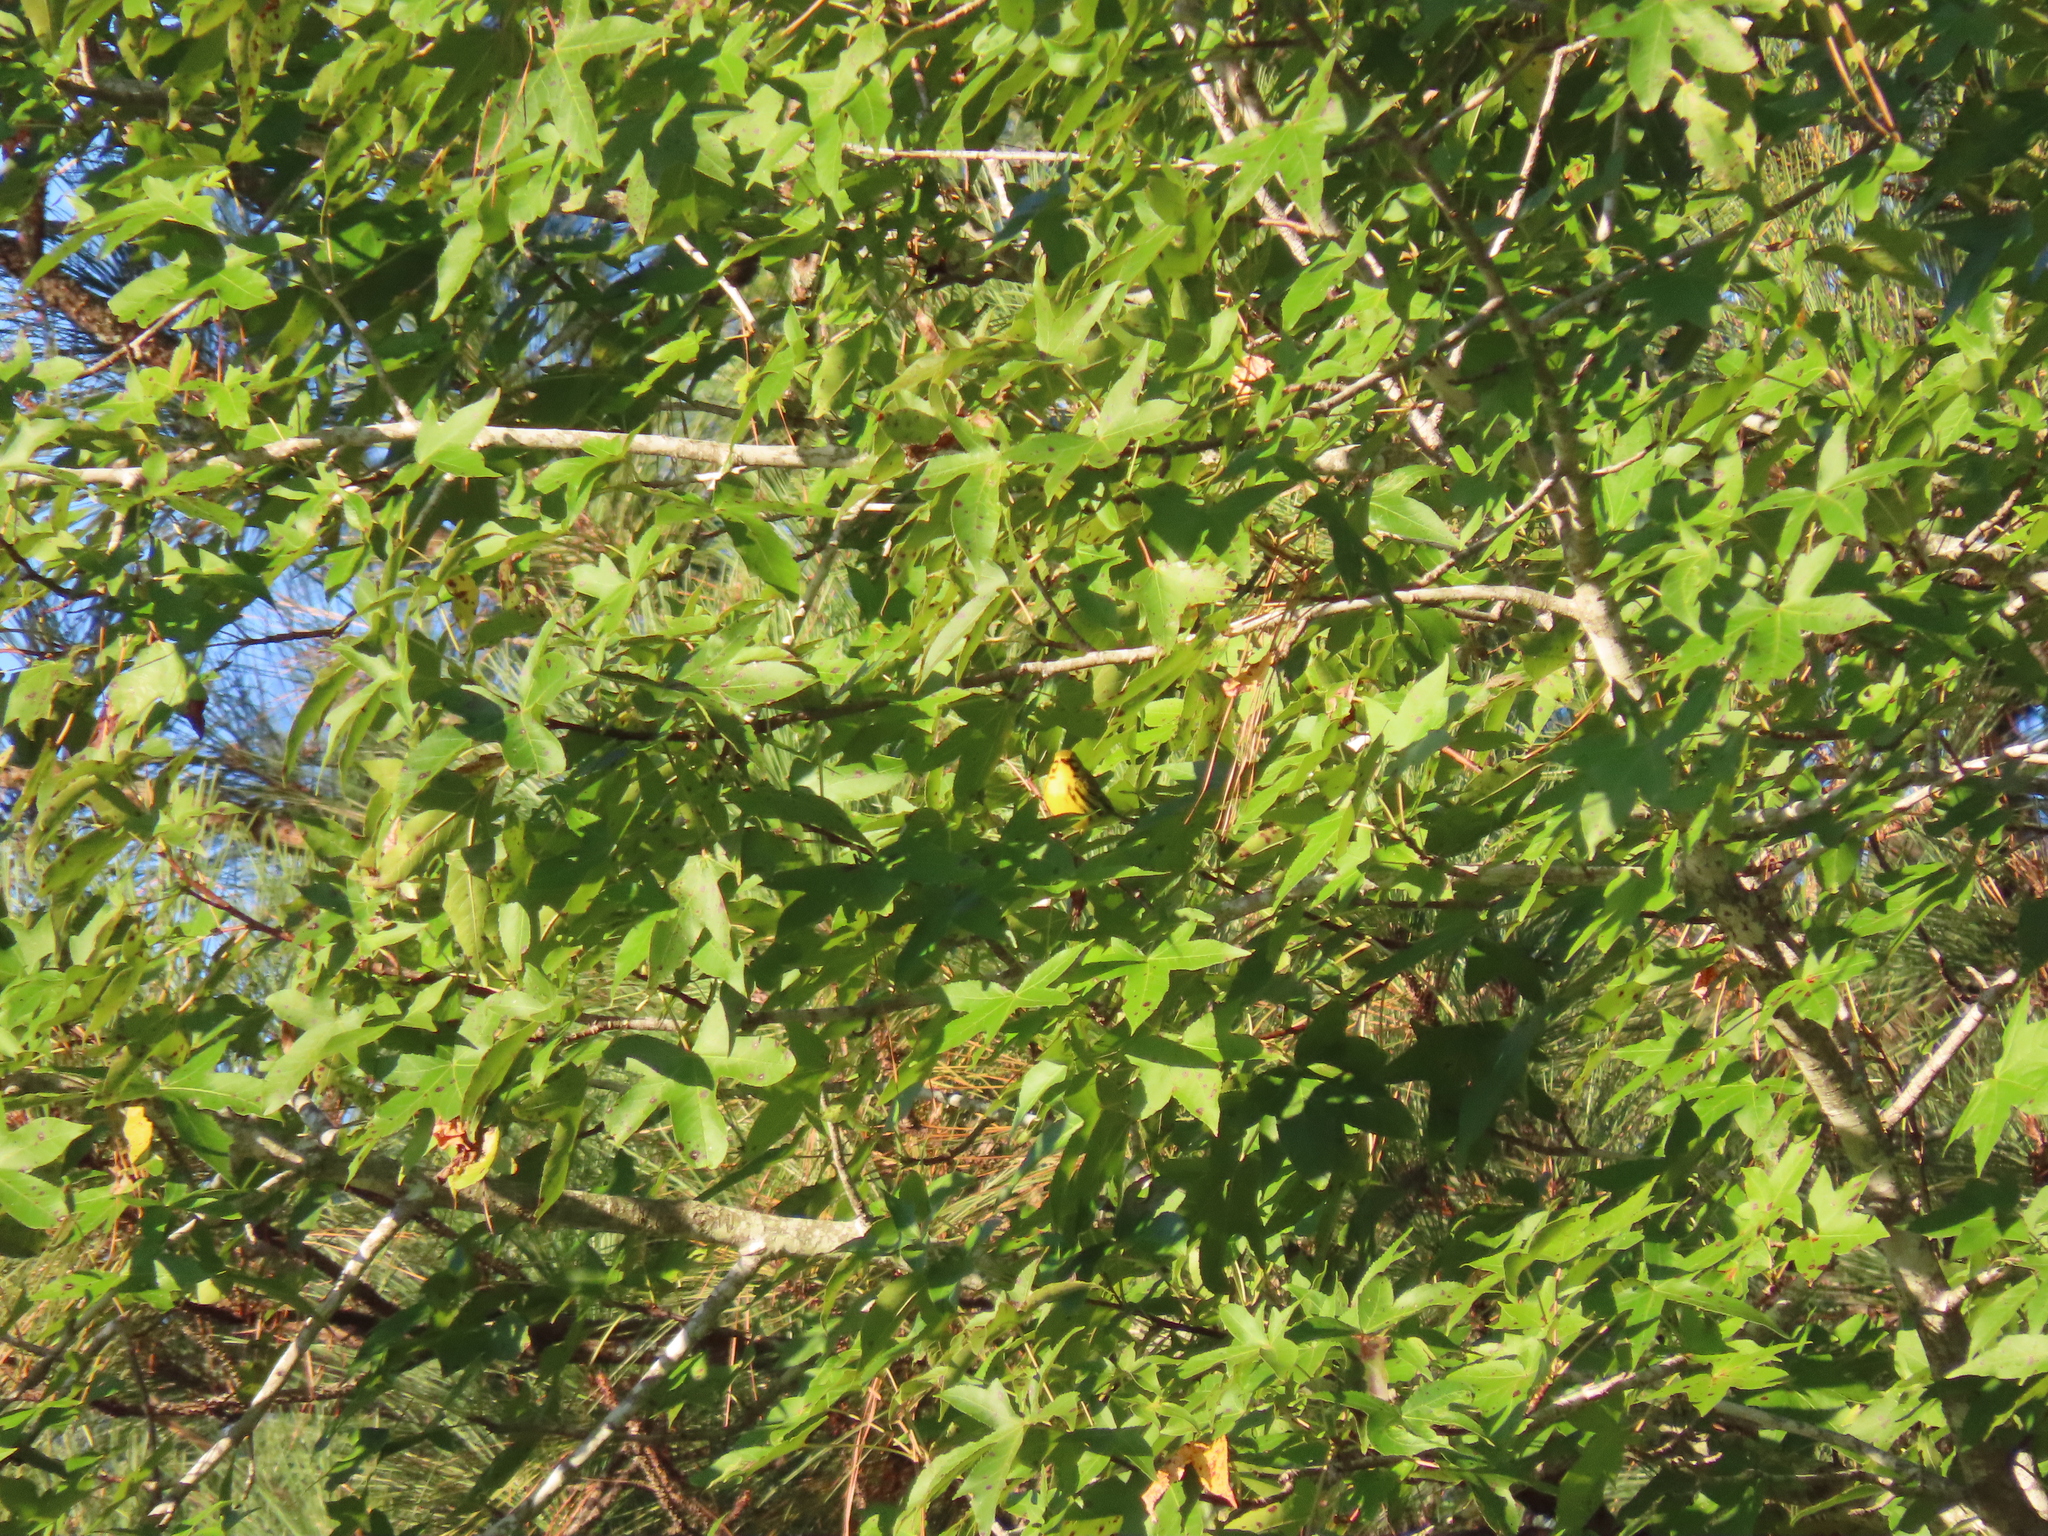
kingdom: Animalia
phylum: Chordata
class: Aves
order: Passeriformes
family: Parulidae
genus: Setophaga
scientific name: Setophaga discolor
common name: Prairie warbler
